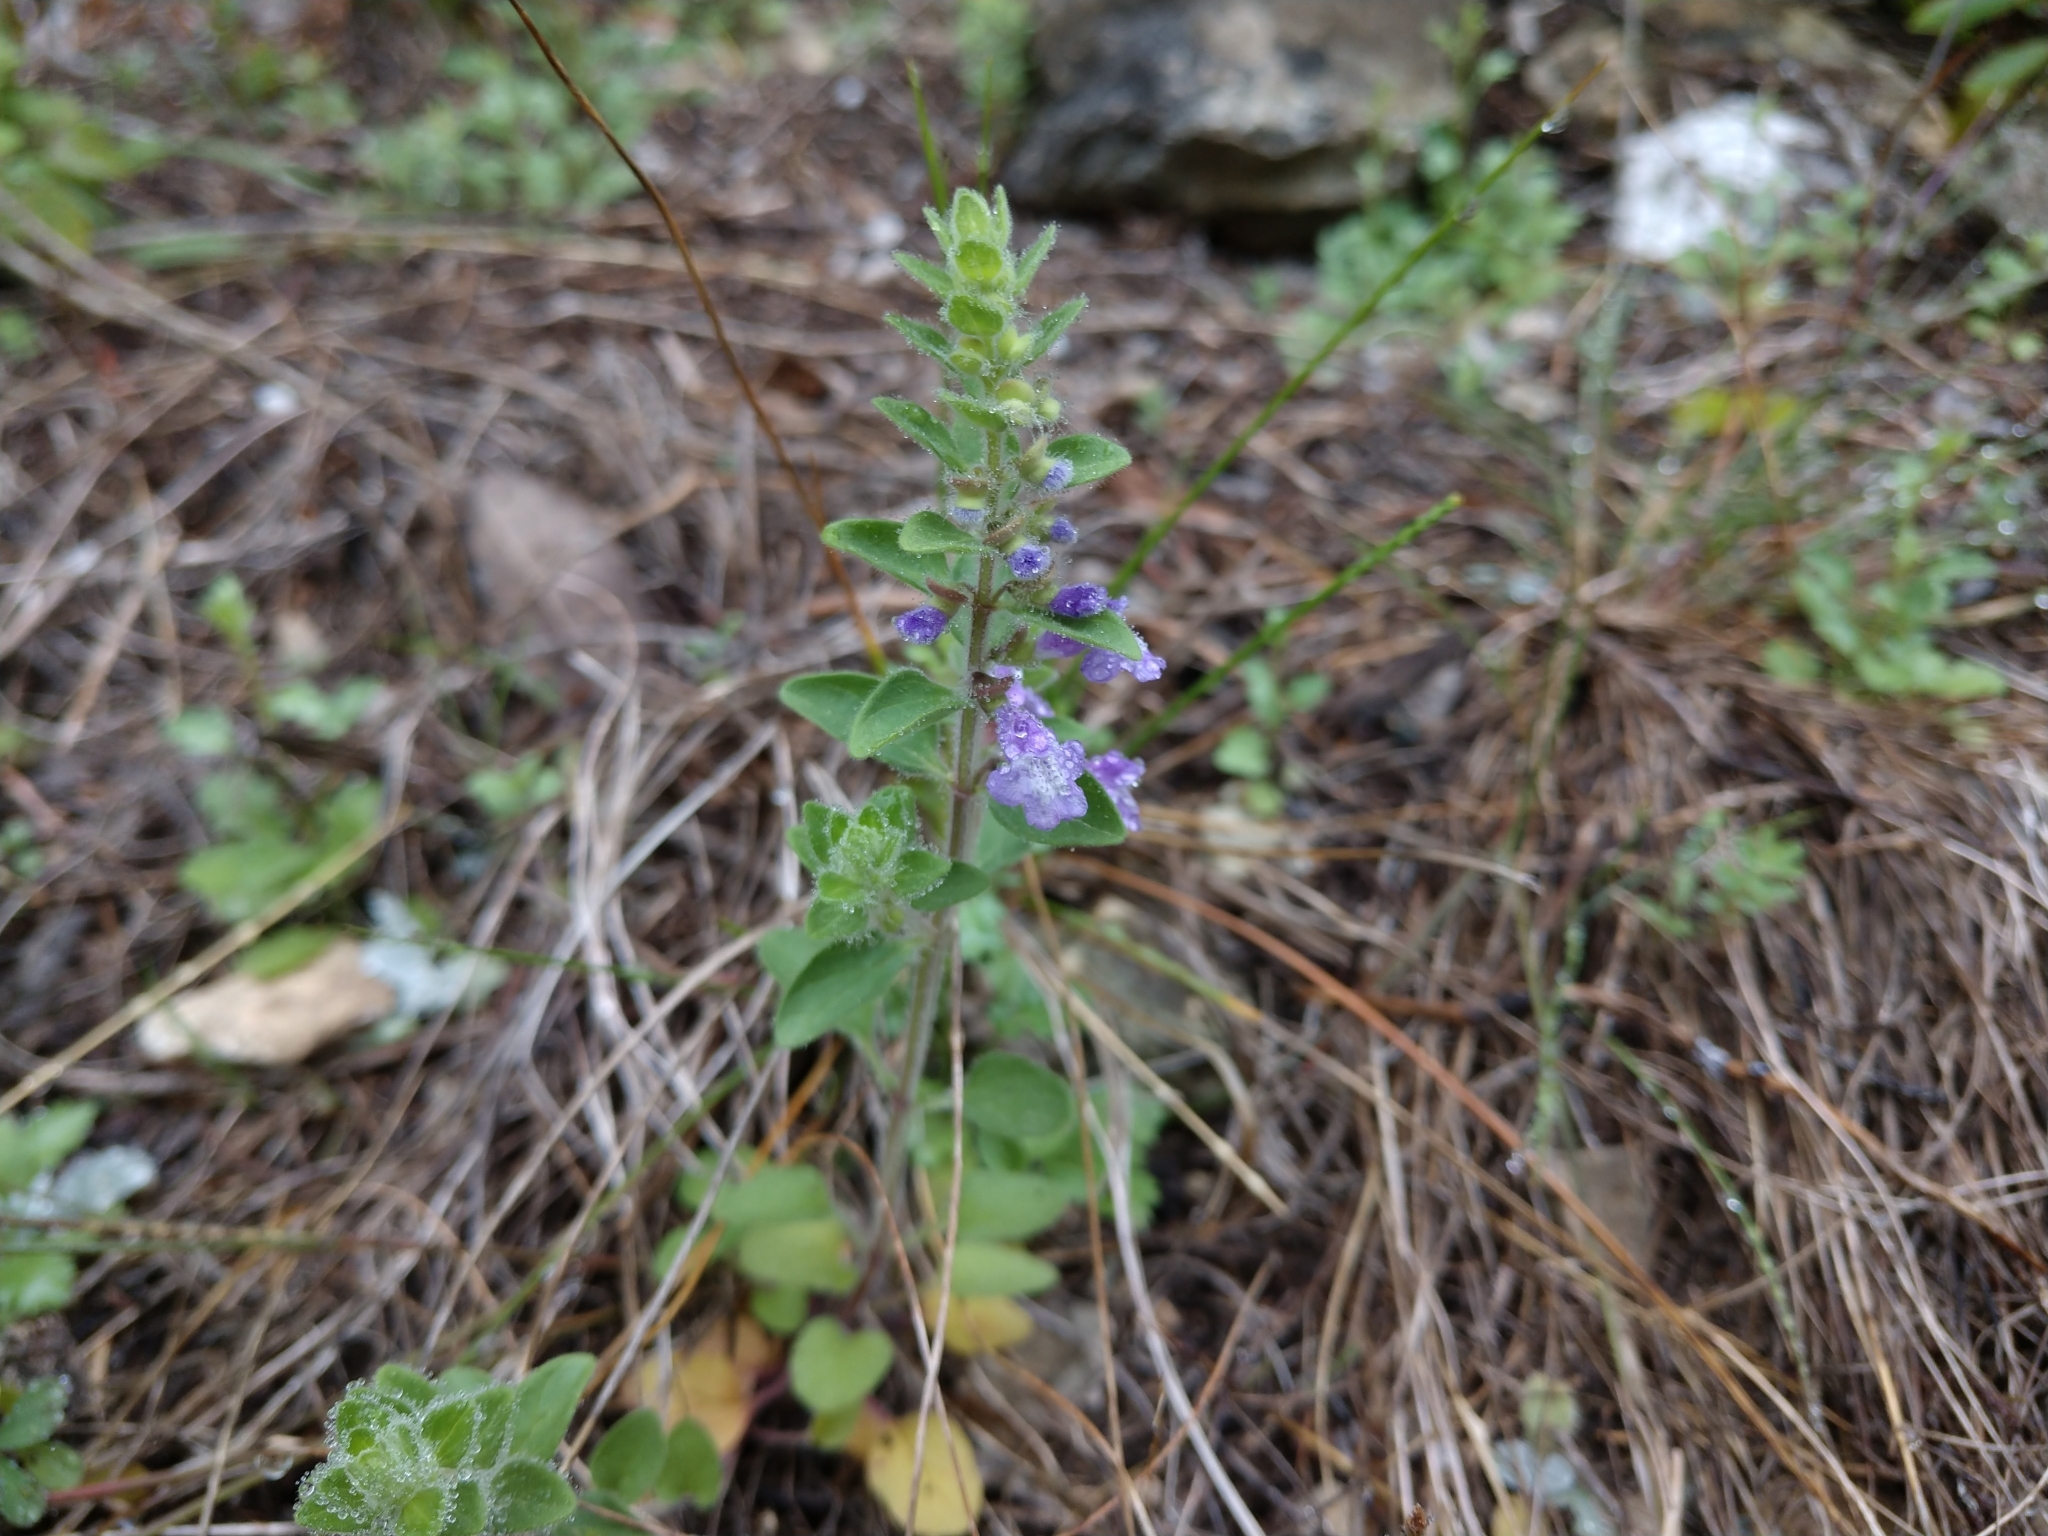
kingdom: Plantae
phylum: Tracheophyta
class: Magnoliopsida
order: Lamiales
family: Lamiaceae
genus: Scutellaria
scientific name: Scutellaria drummondii
